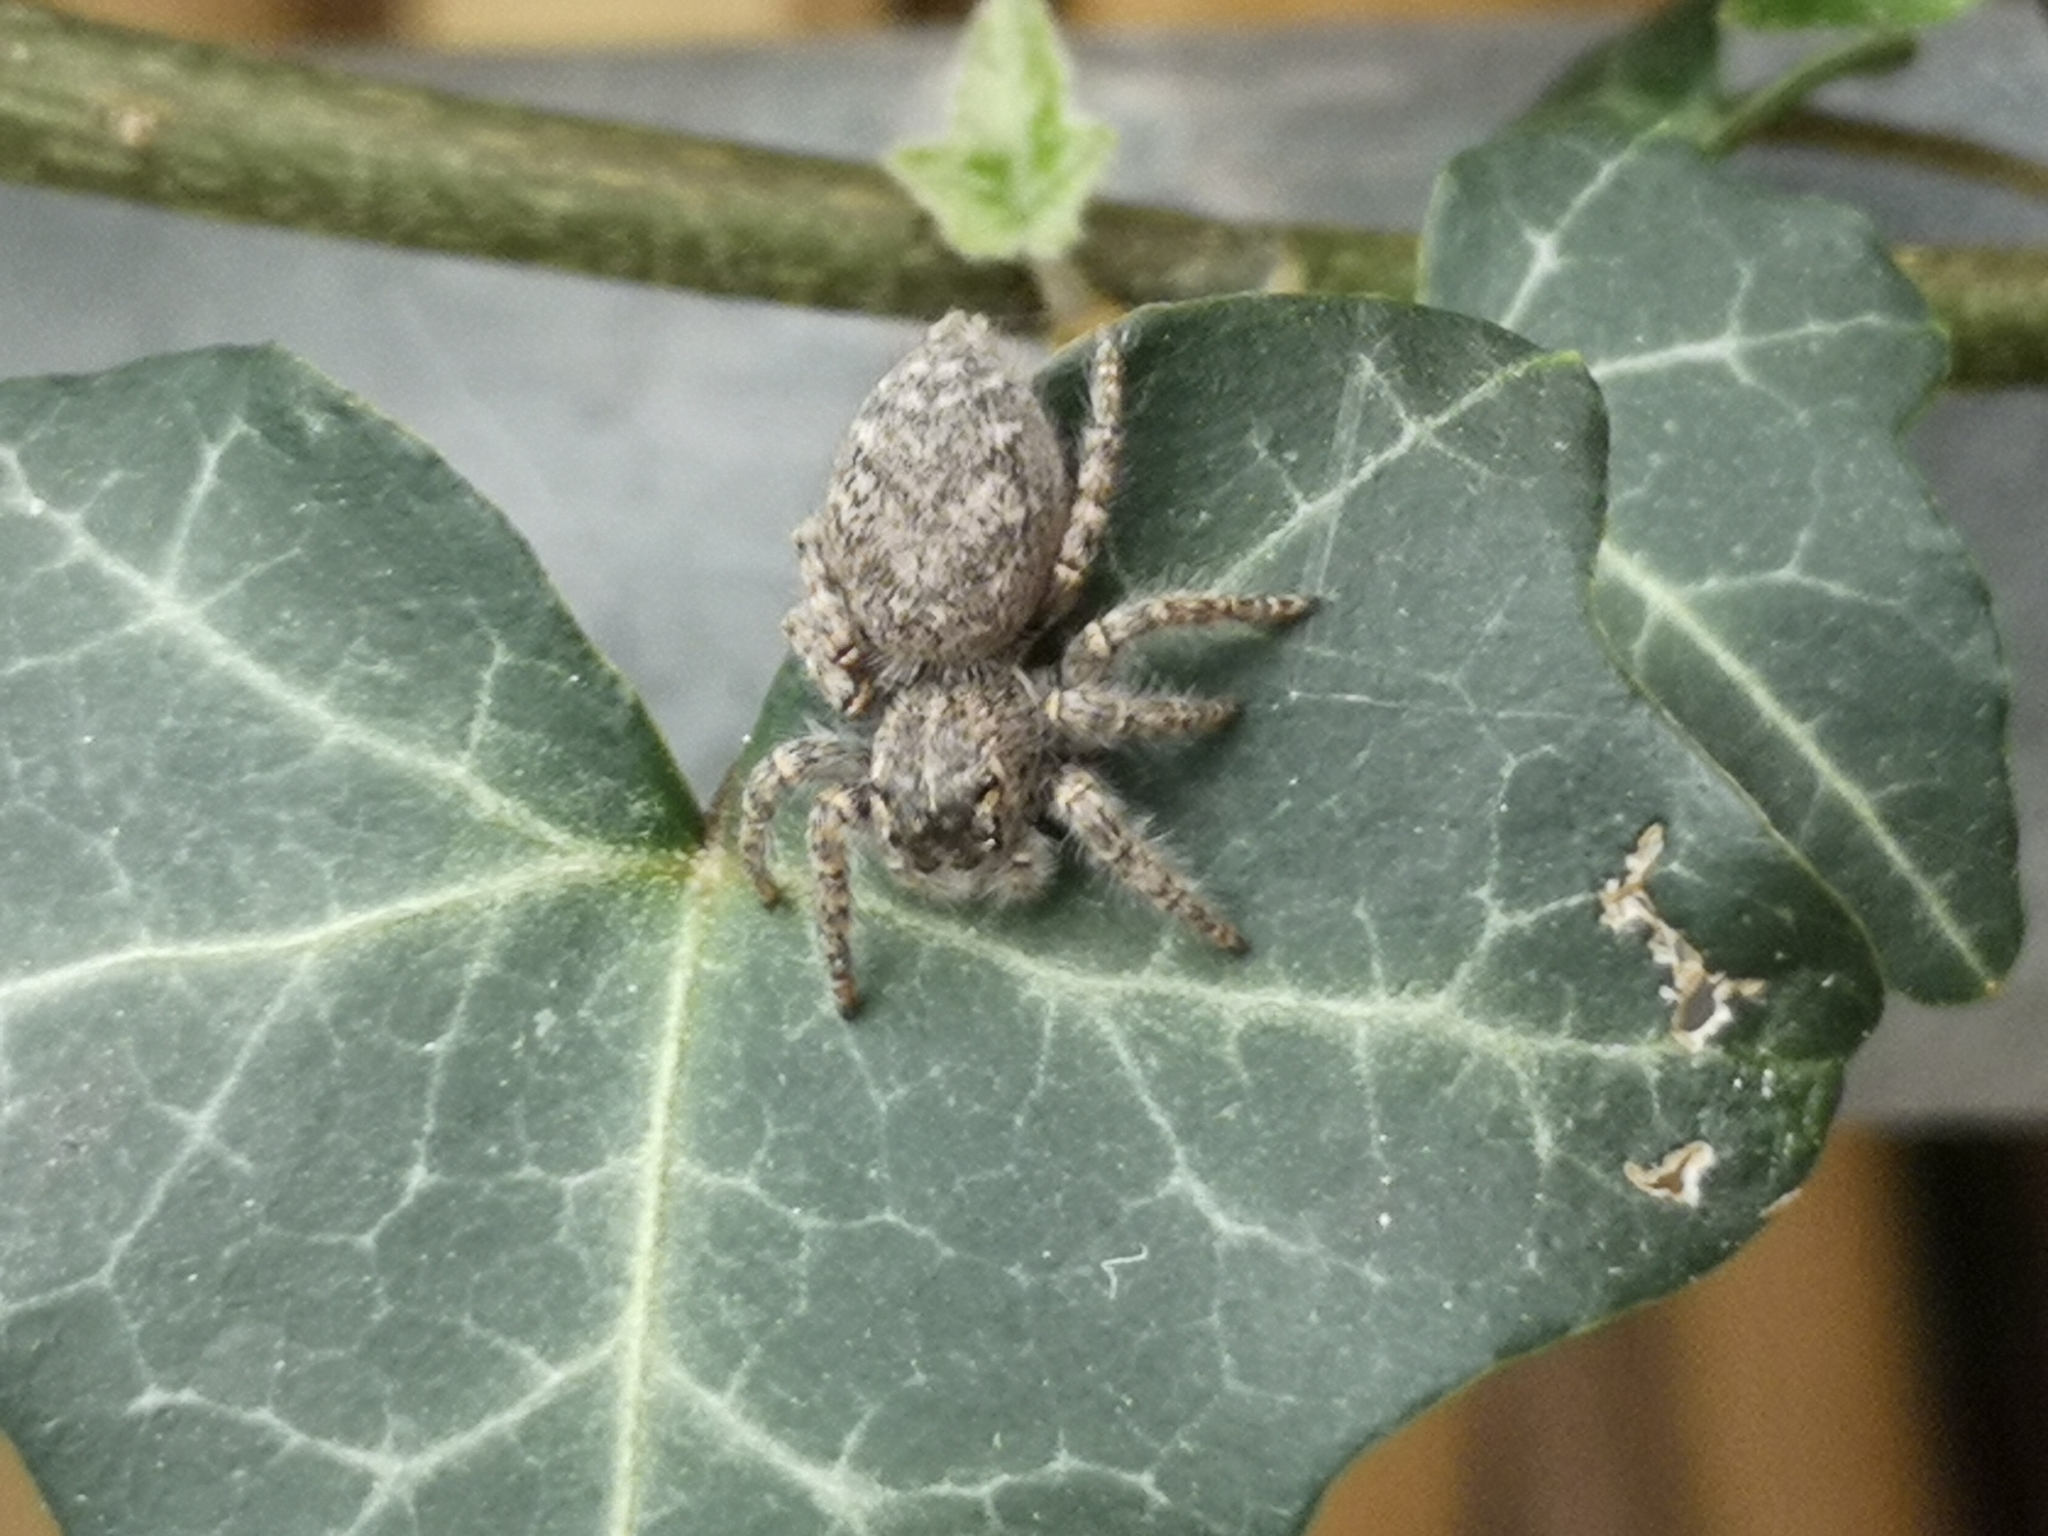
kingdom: Animalia
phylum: Arthropoda
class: Arachnida
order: Araneae
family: Salticidae
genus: Philaeus
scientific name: Philaeus chrysops
